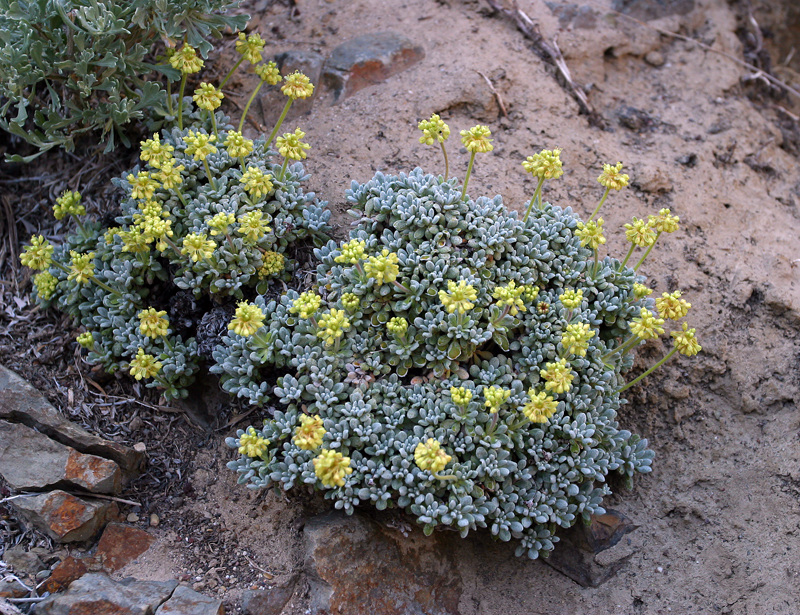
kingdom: Plantae
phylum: Tracheophyta
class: Magnoliopsida
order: Caryophyllales
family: Polygonaceae
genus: Eriogonum
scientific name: Eriogonum caespitosum
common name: Matted wild buckwheat
